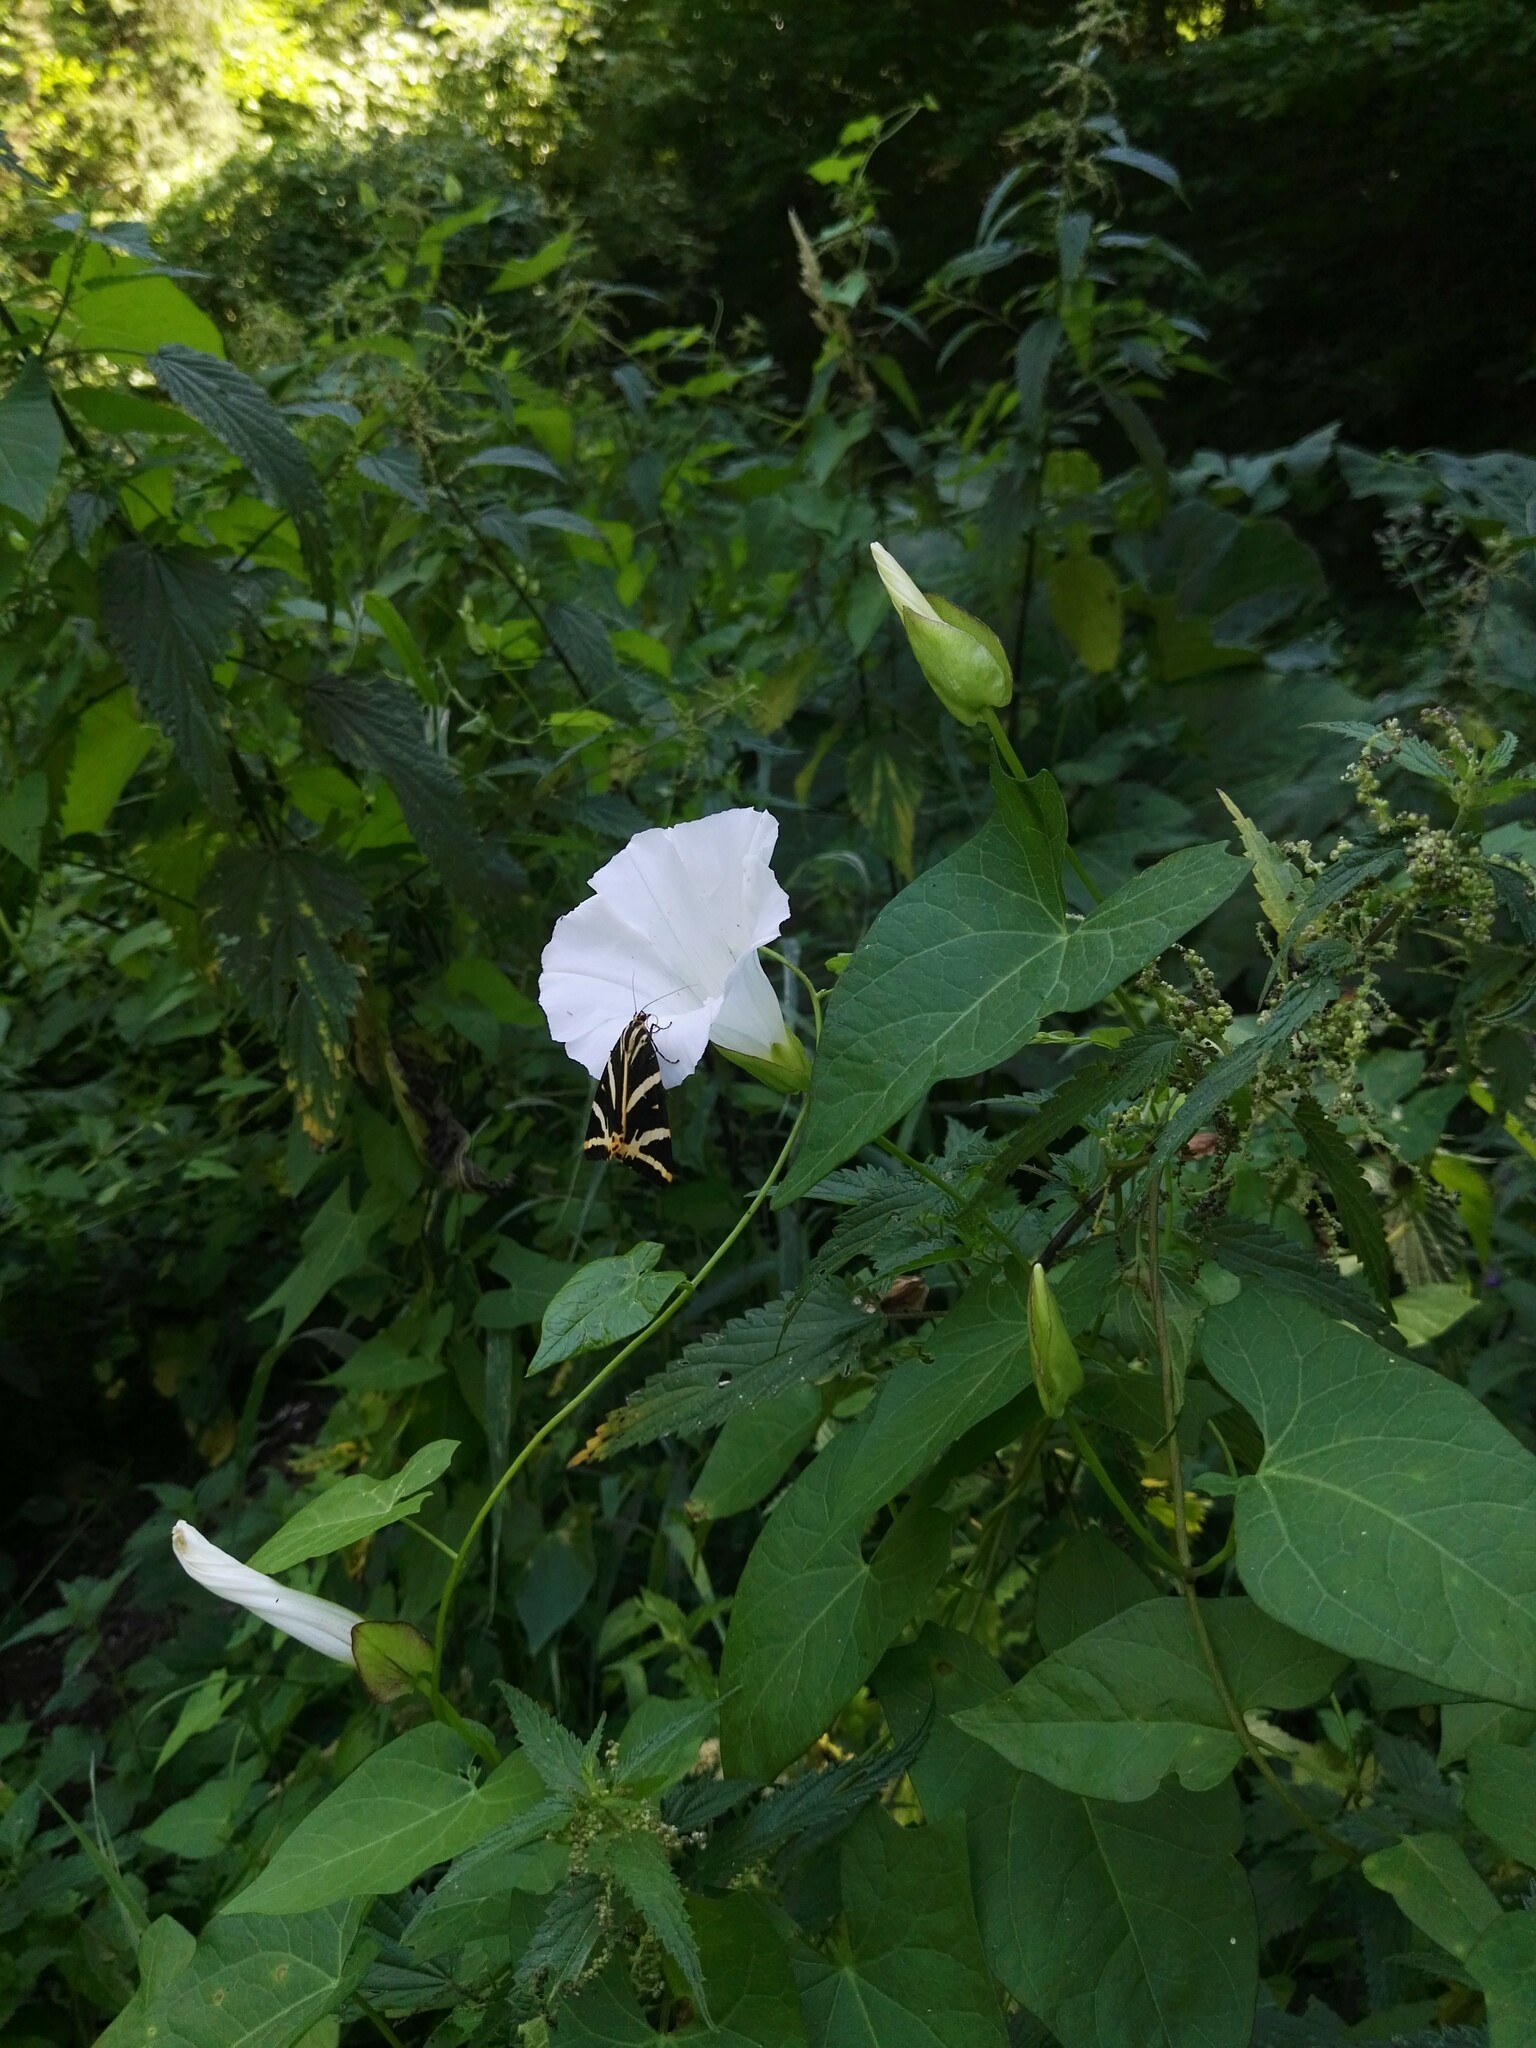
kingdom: Animalia
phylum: Arthropoda
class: Insecta
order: Lepidoptera
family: Erebidae
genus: Euplagia
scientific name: Euplagia quadripunctaria
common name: Jersey tiger
